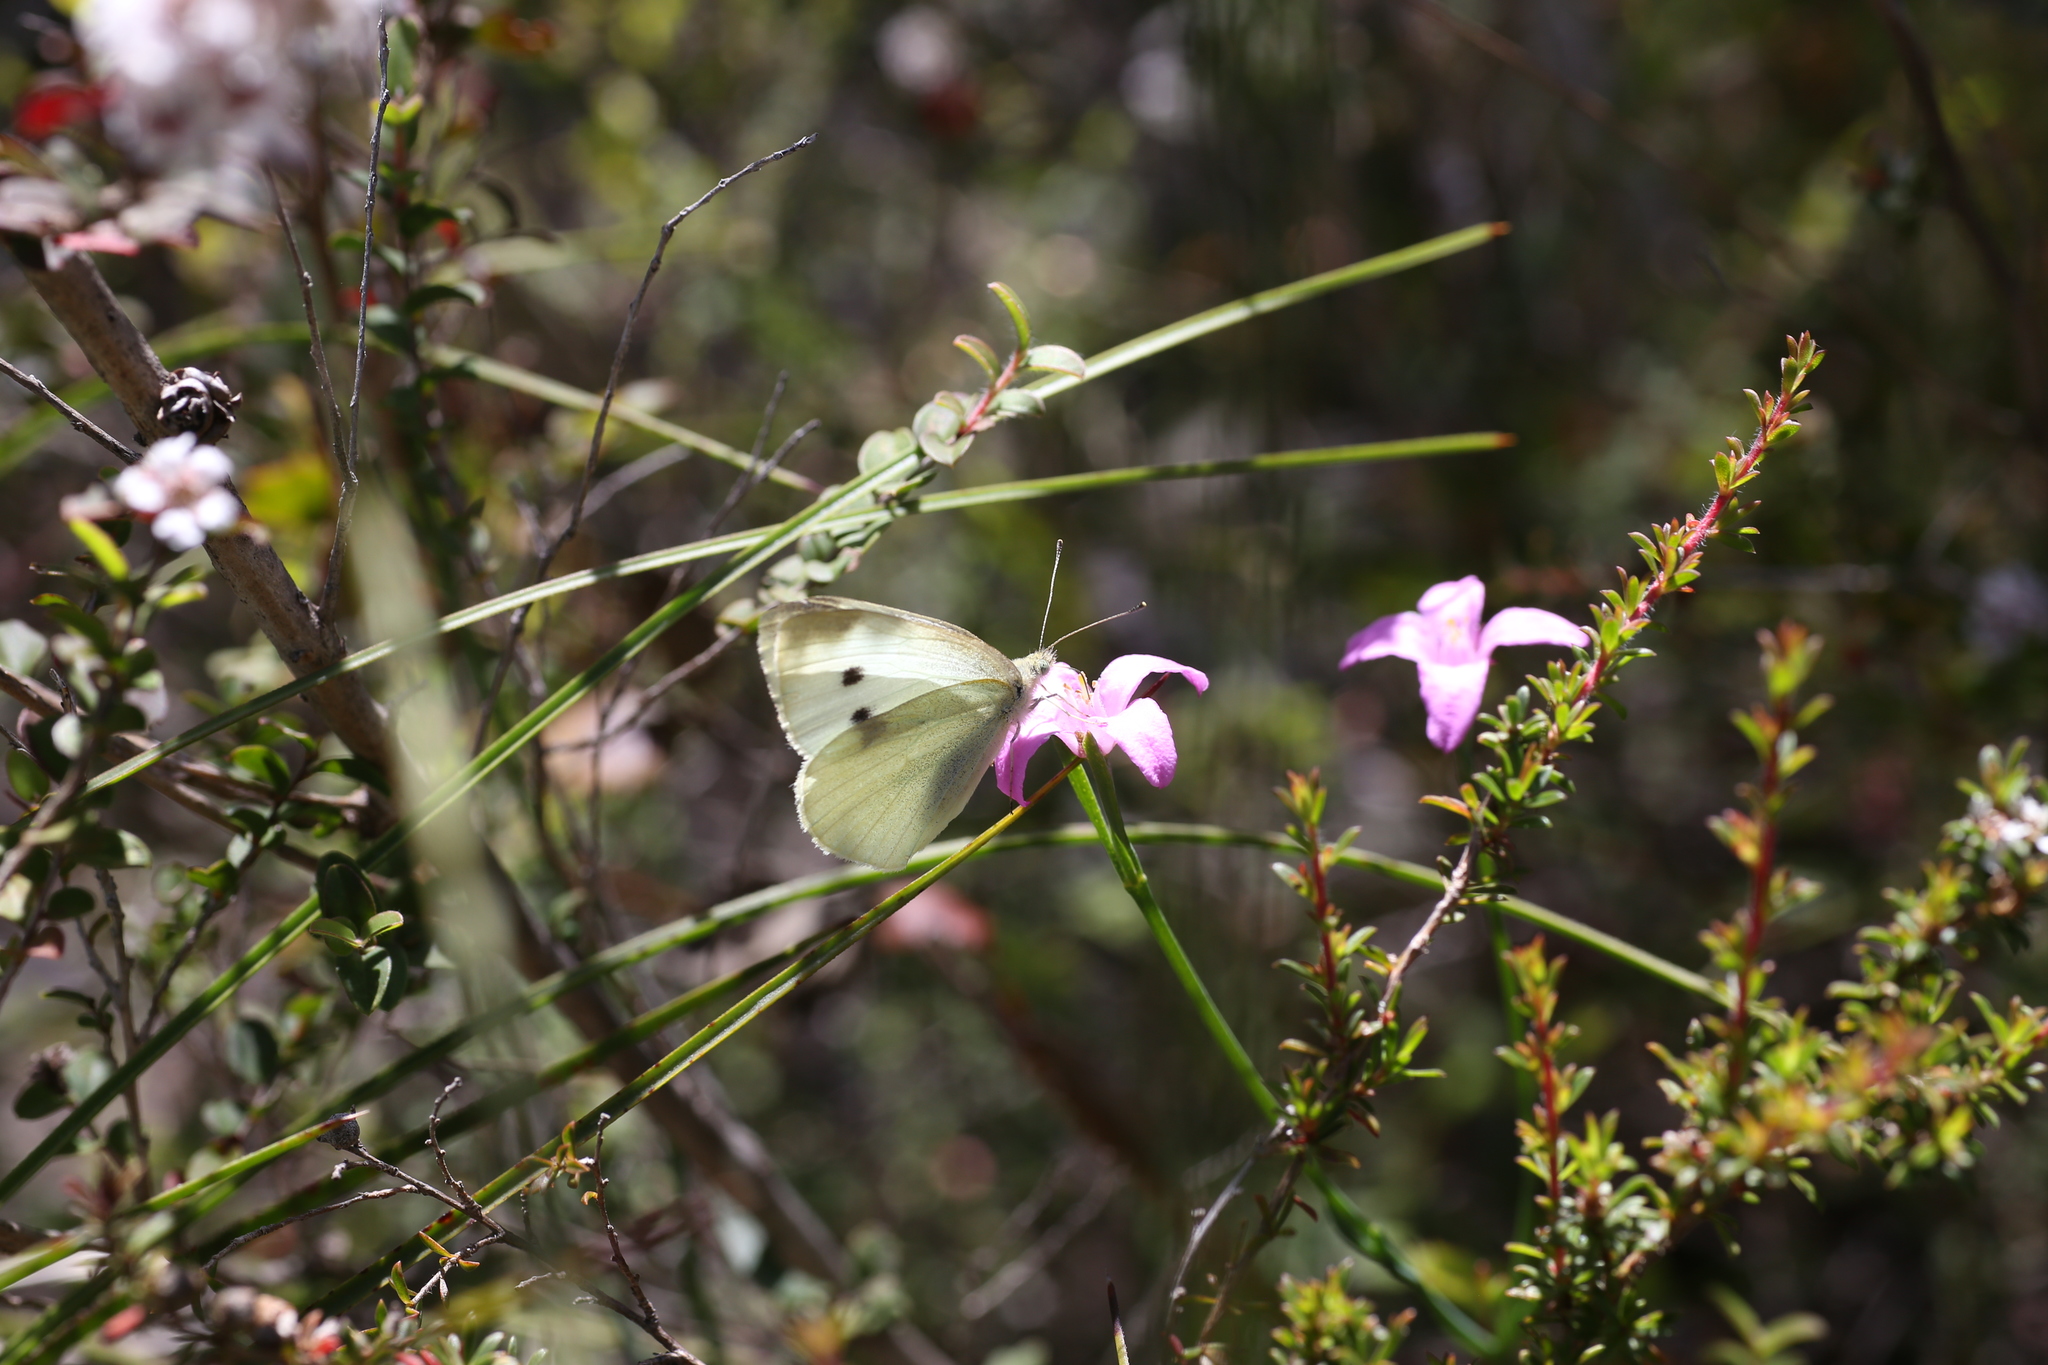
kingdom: Animalia
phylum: Arthropoda
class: Insecta
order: Lepidoptera
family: Pieridae
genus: Pieris
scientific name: Pieris rapae
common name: Small white
